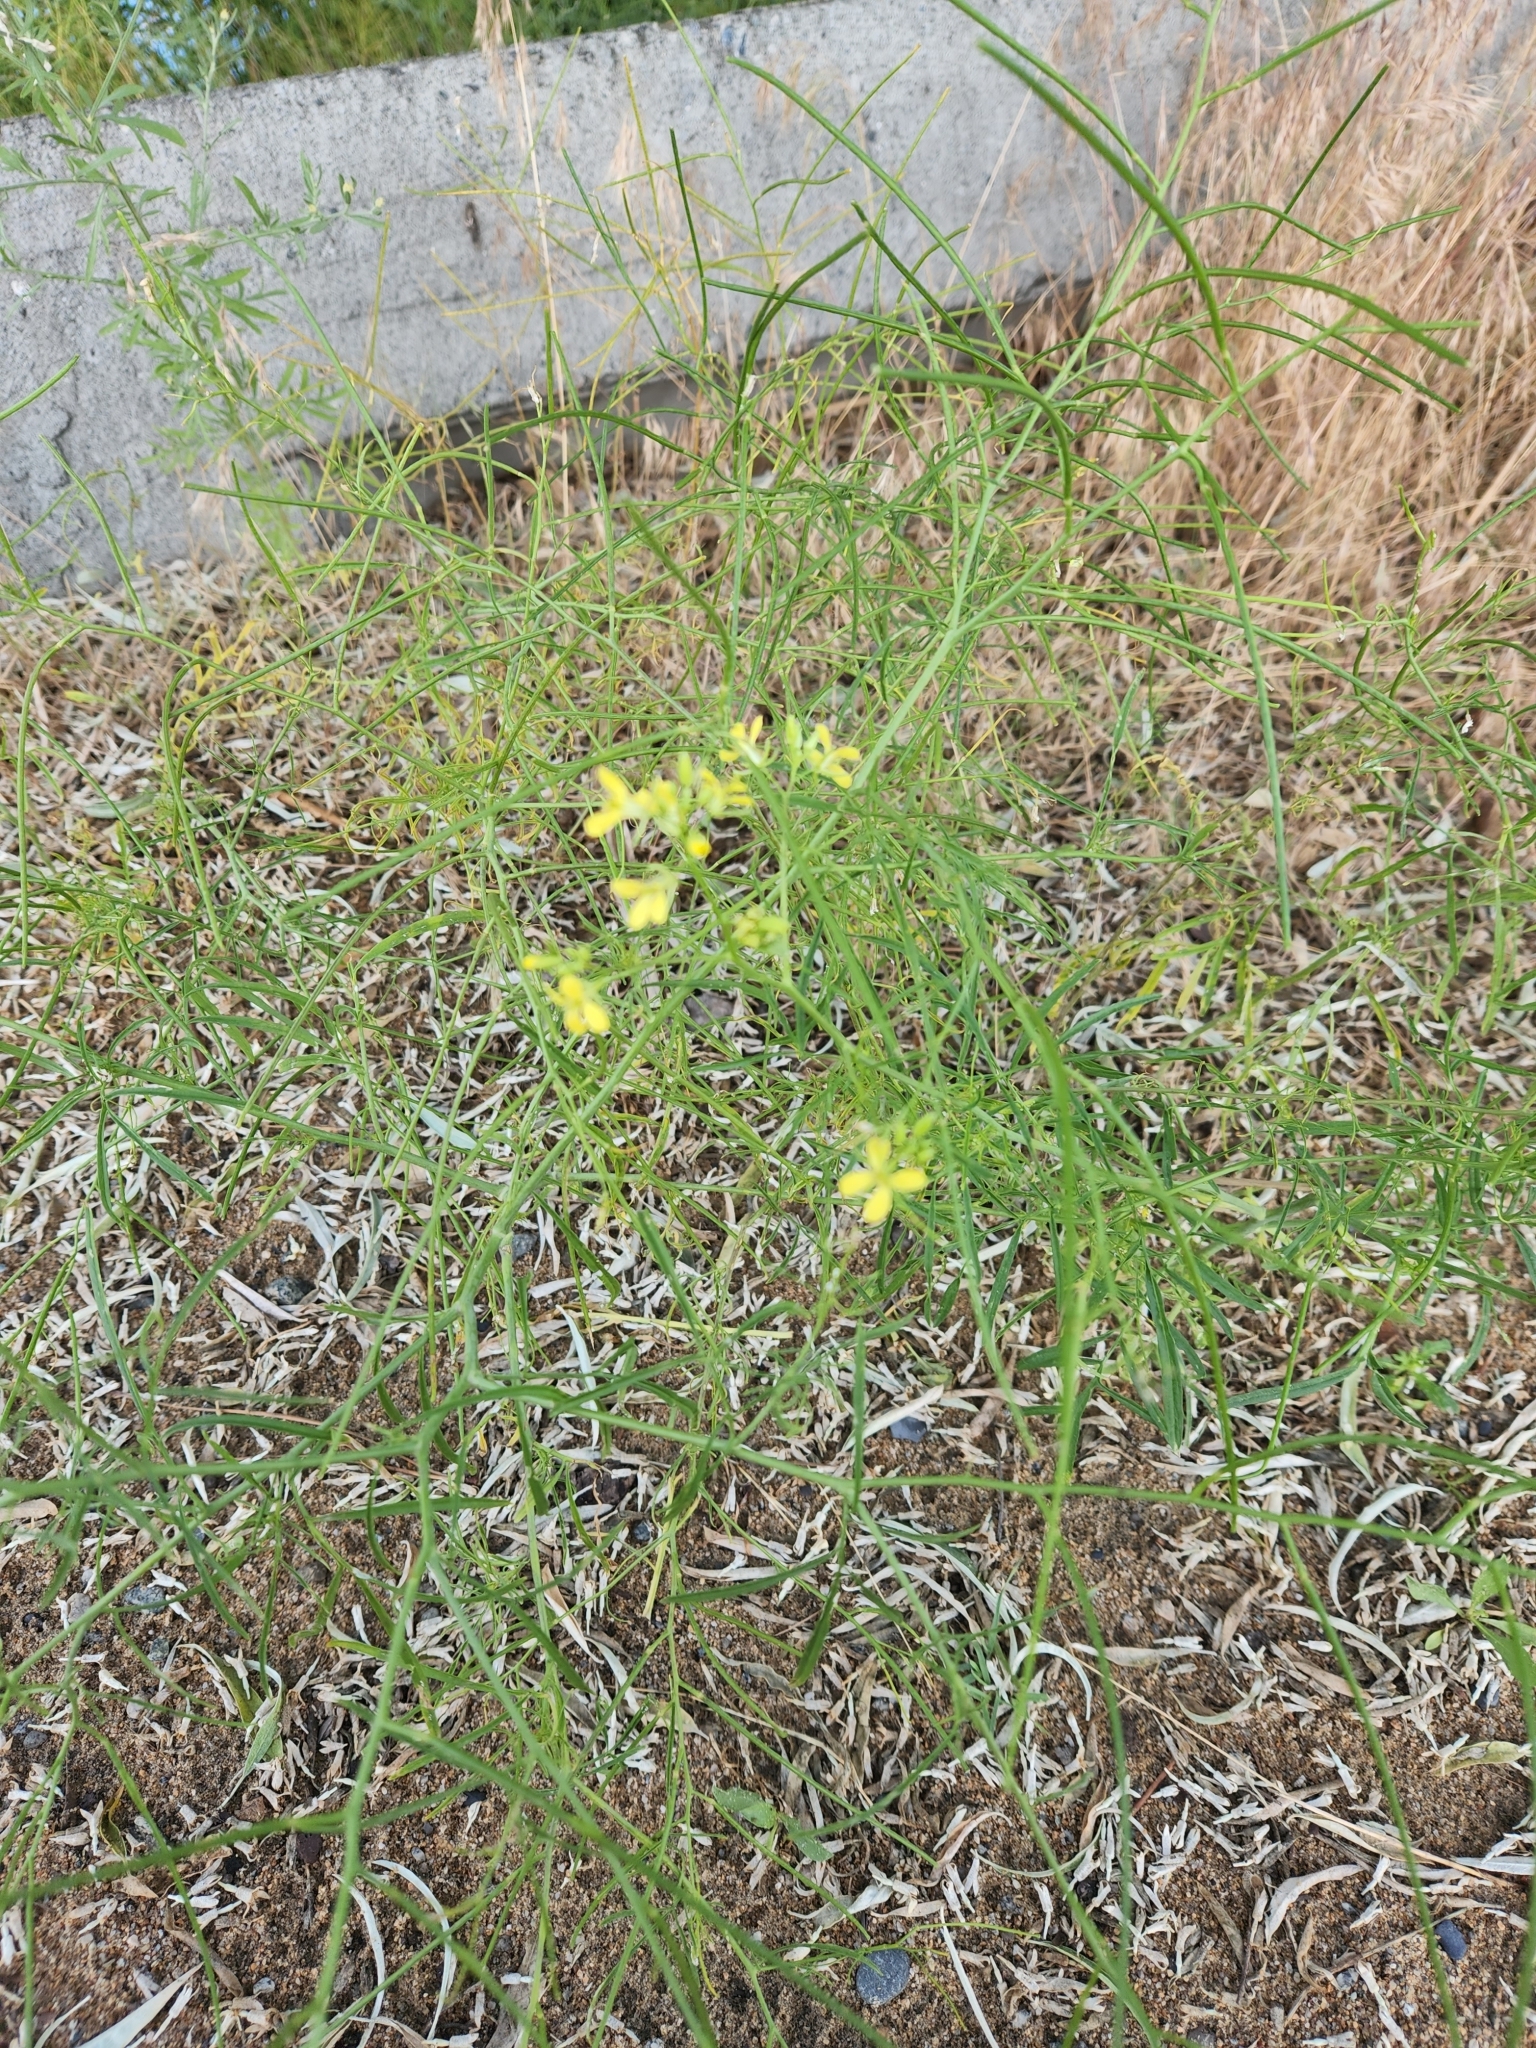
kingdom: Plantae
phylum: Tracheophyta
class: Magnoliopsida
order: Brassicales
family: Brassicaceae
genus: Sisymbrium
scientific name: Sisymbrium altissimum
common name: Tall rocket
